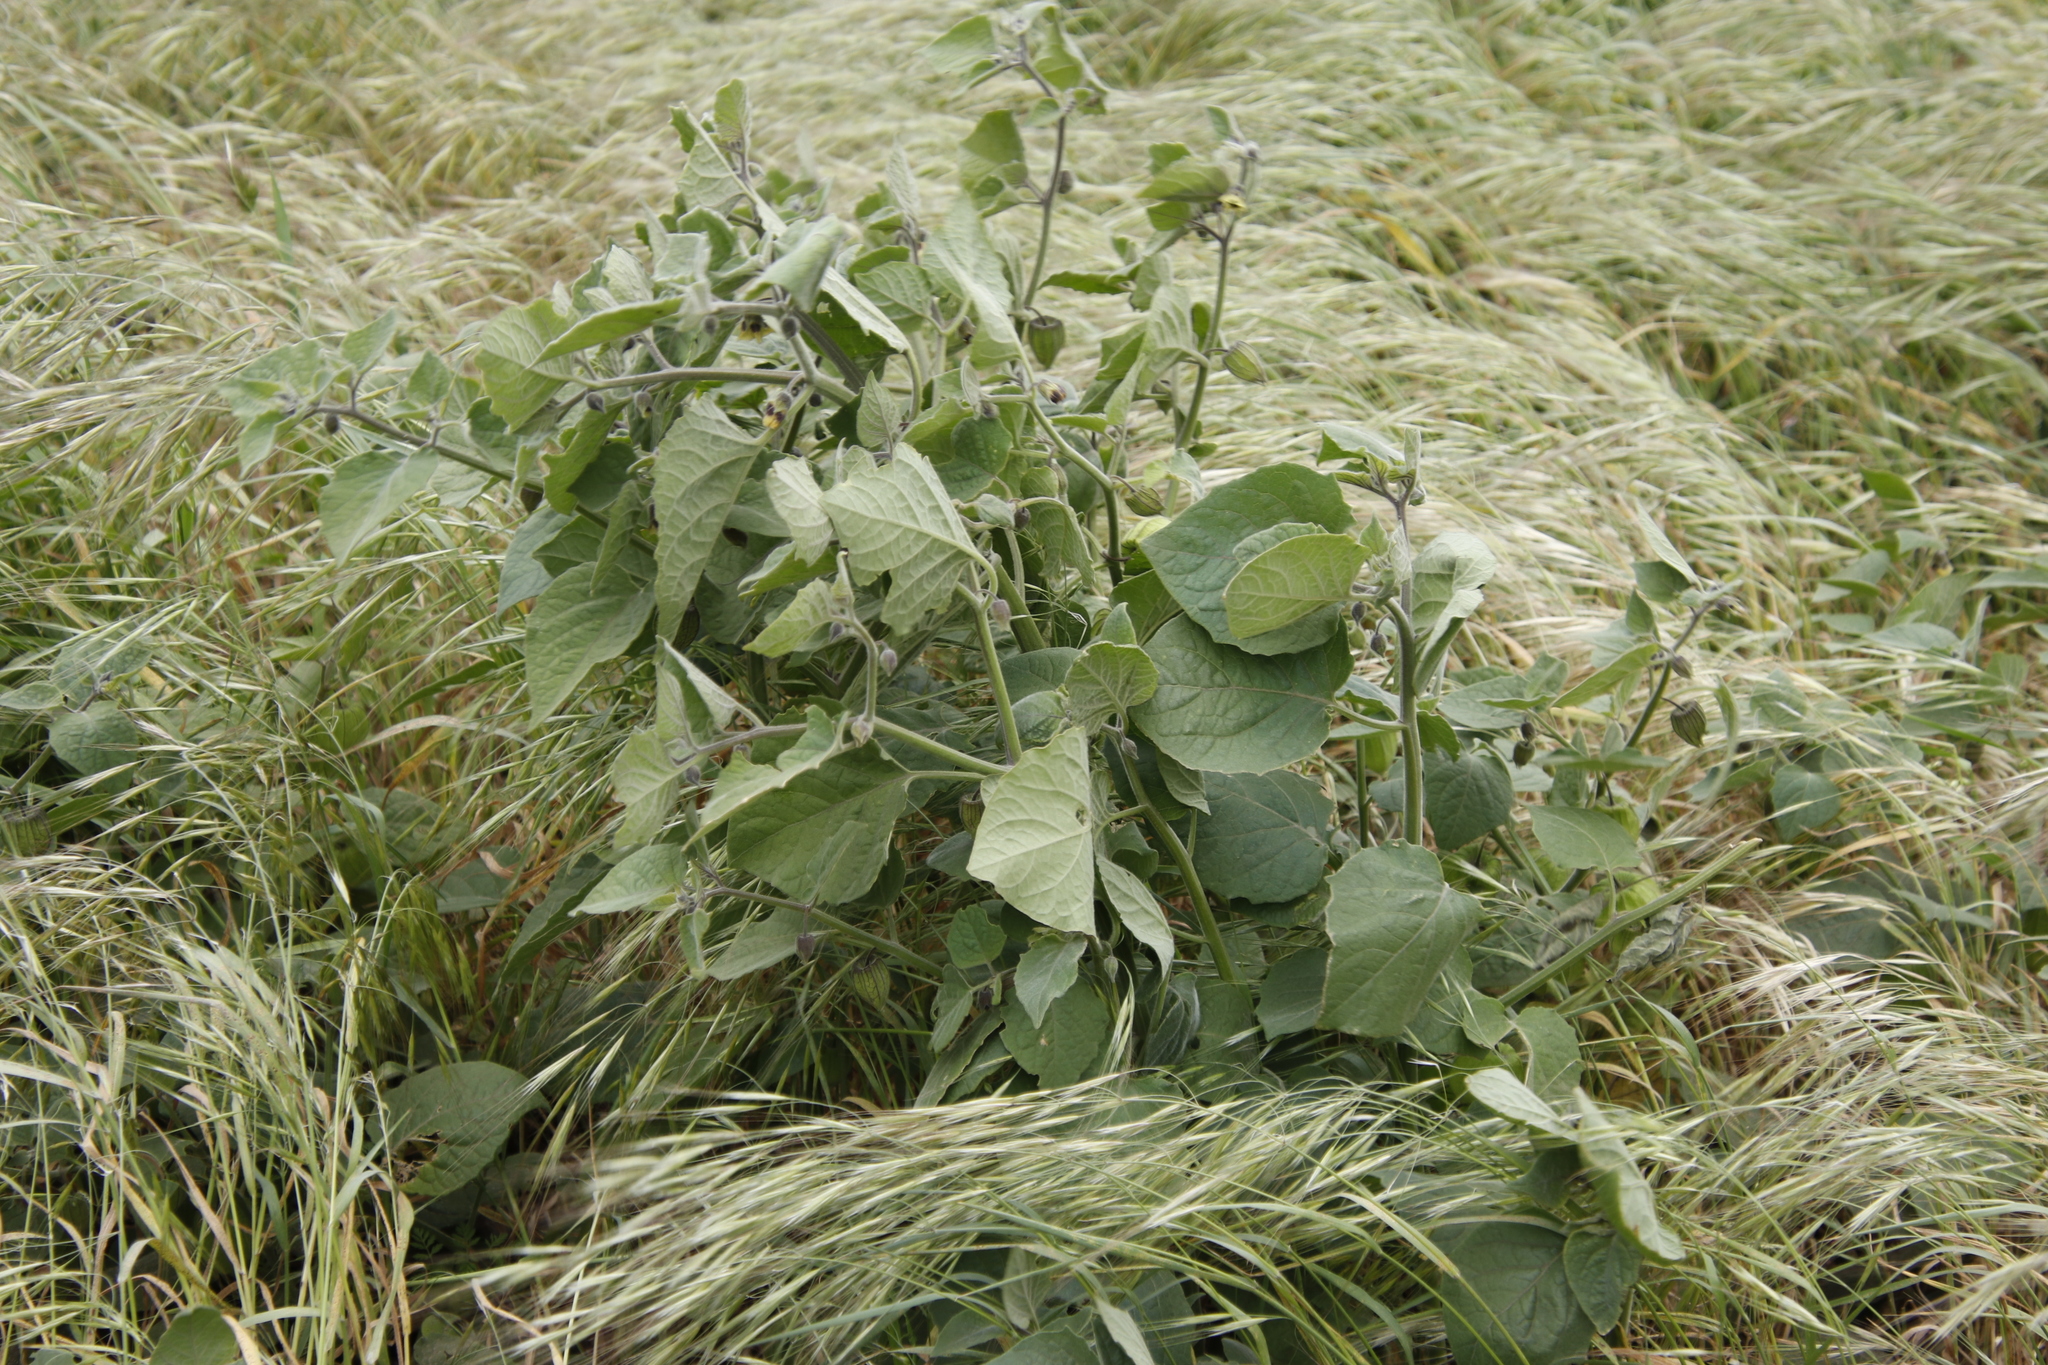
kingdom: Plantae
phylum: Tracheophyta
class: Magnoliopsida
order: Solanales
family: Solanaceae
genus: Physalis
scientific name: Physalis peruviana
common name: Cape-gooseberry
